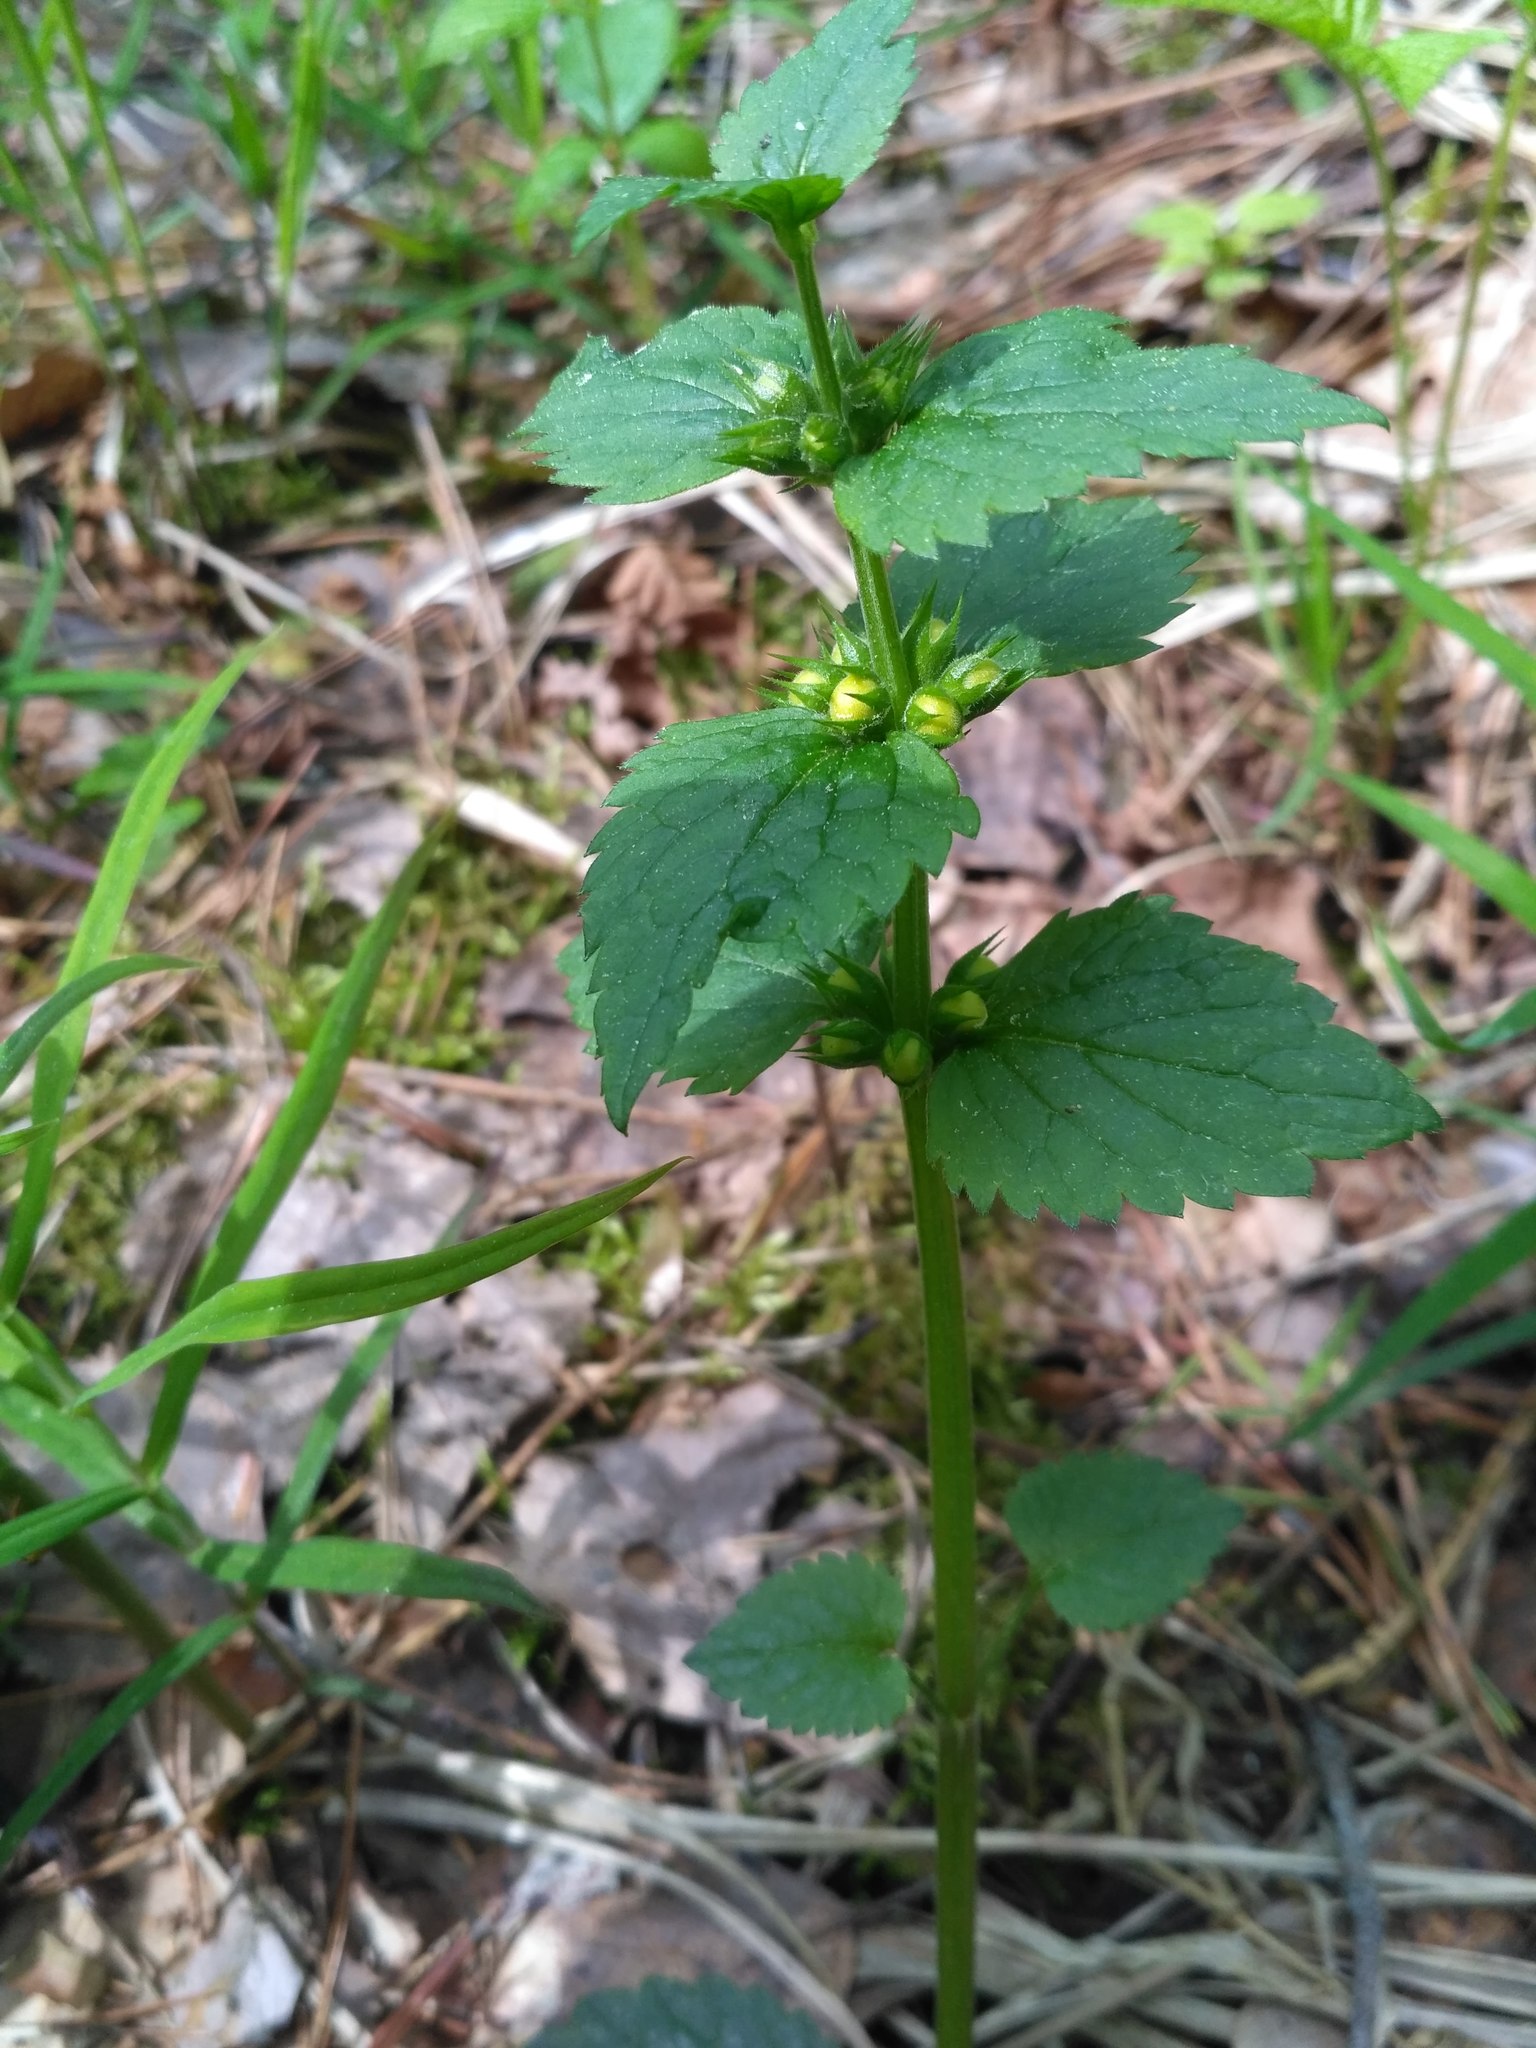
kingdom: Plantae
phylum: Tracheophyta
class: Magnoliopsida
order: Lamiales
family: Lamiaceae
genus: Lamium
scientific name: Lamium galeobdolon
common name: Yellow archangel
